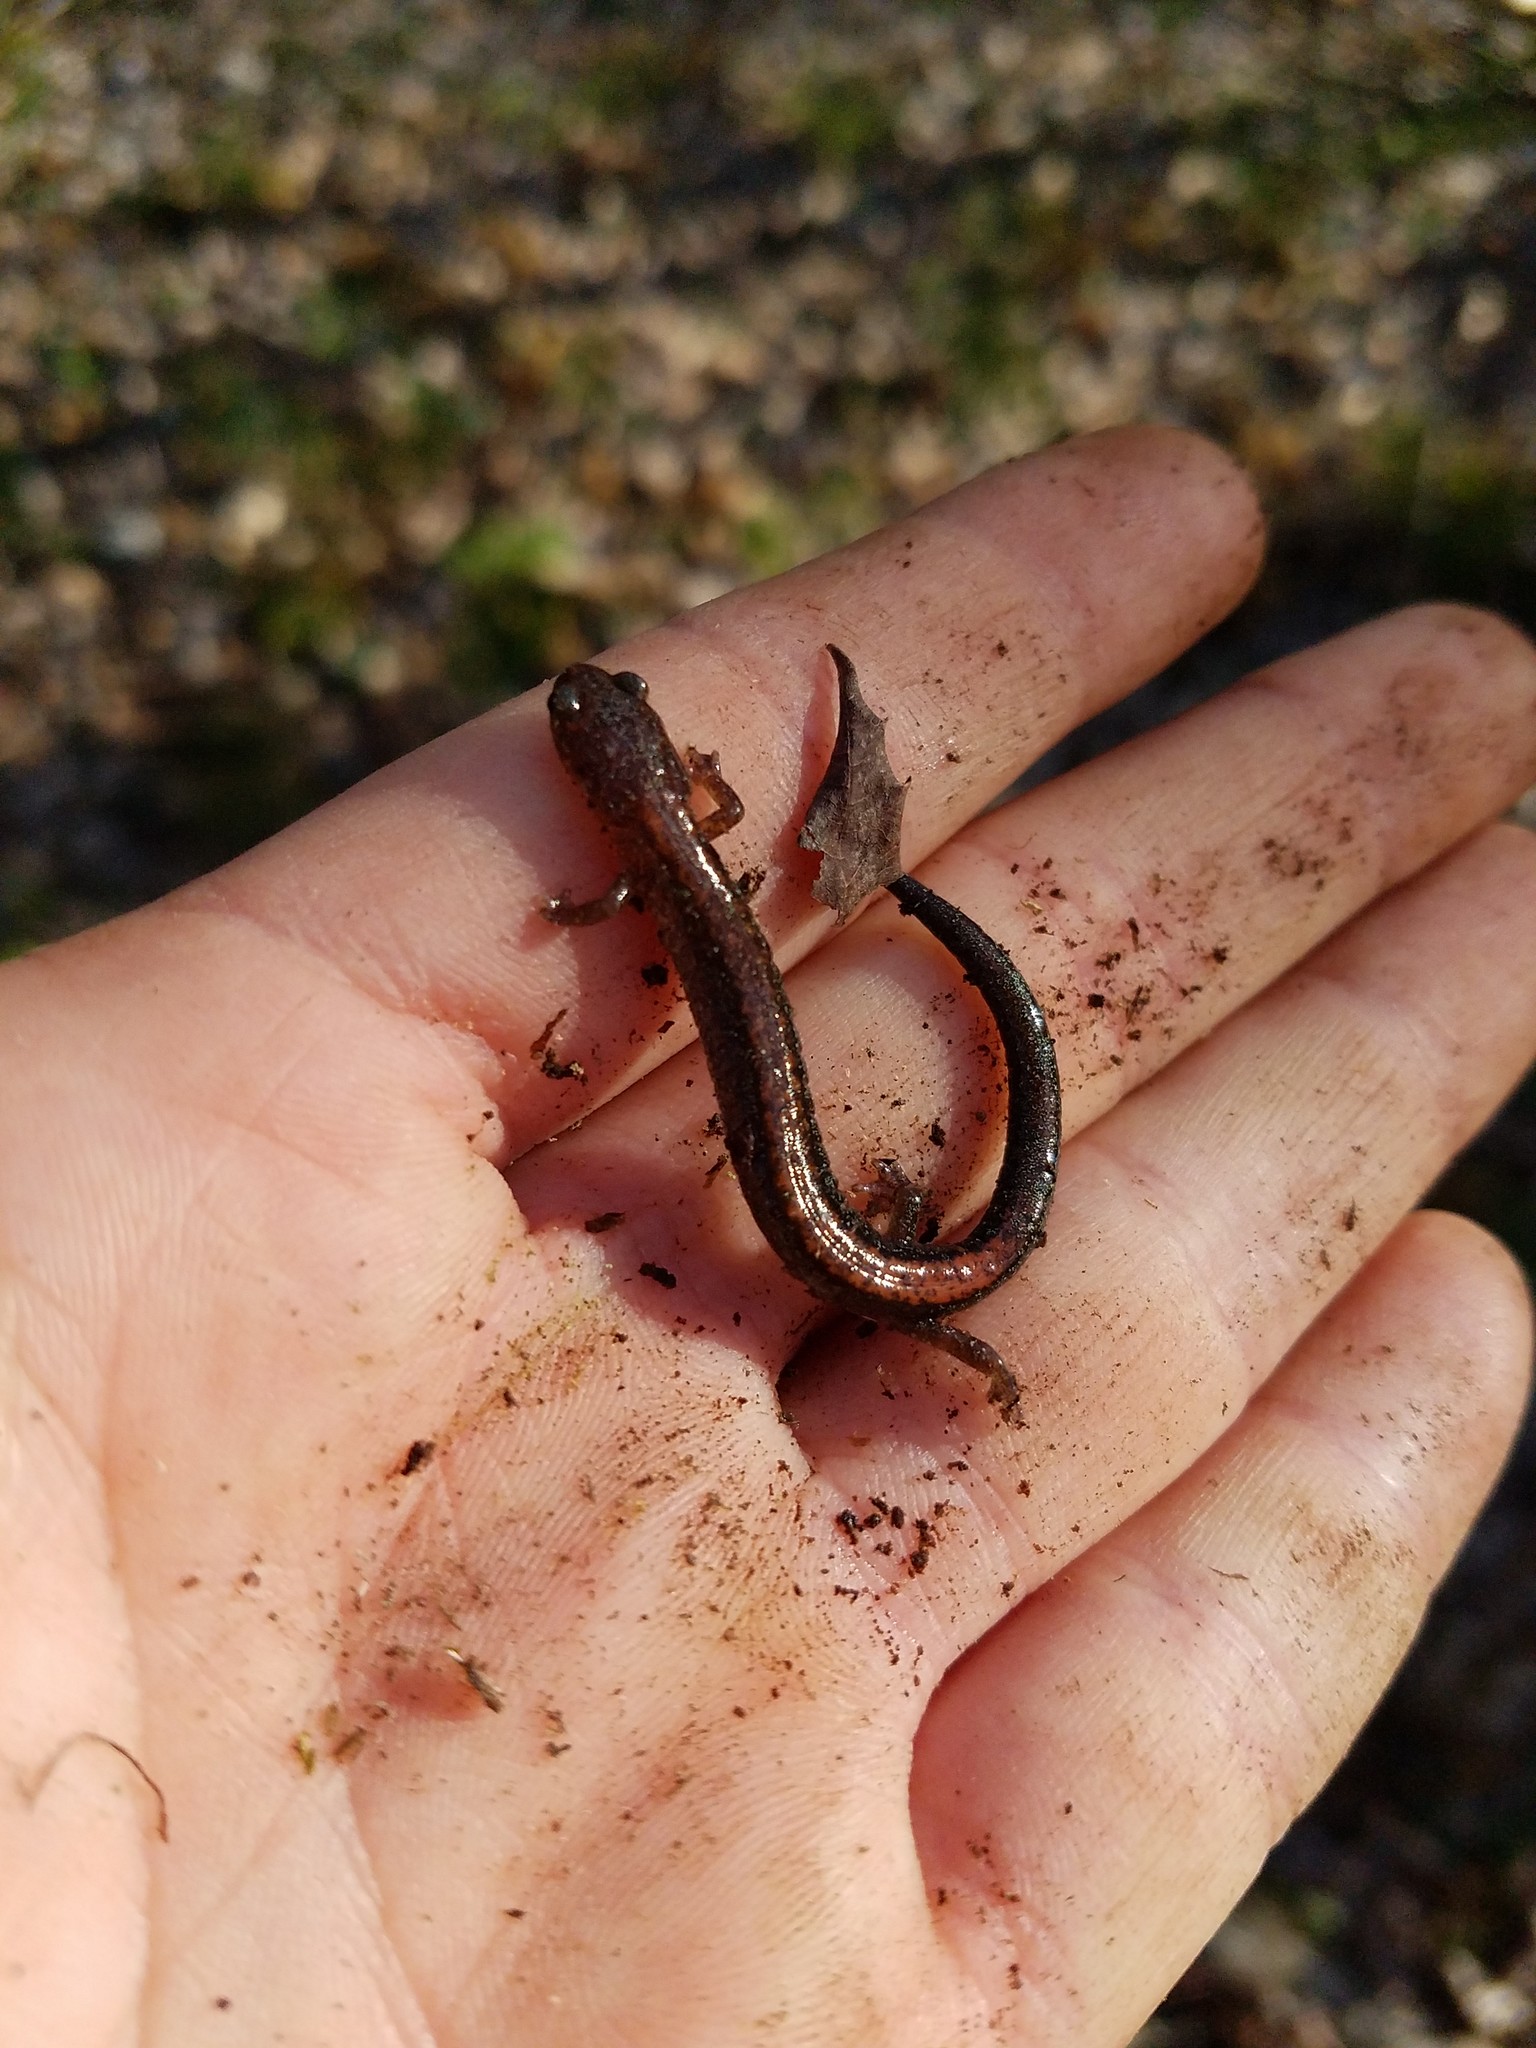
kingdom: Animalia
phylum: Chordata
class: Amphibia
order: Caudata
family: Plethodontidae
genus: Plethodon
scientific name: Plethodon cinereus
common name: Redback salamander
